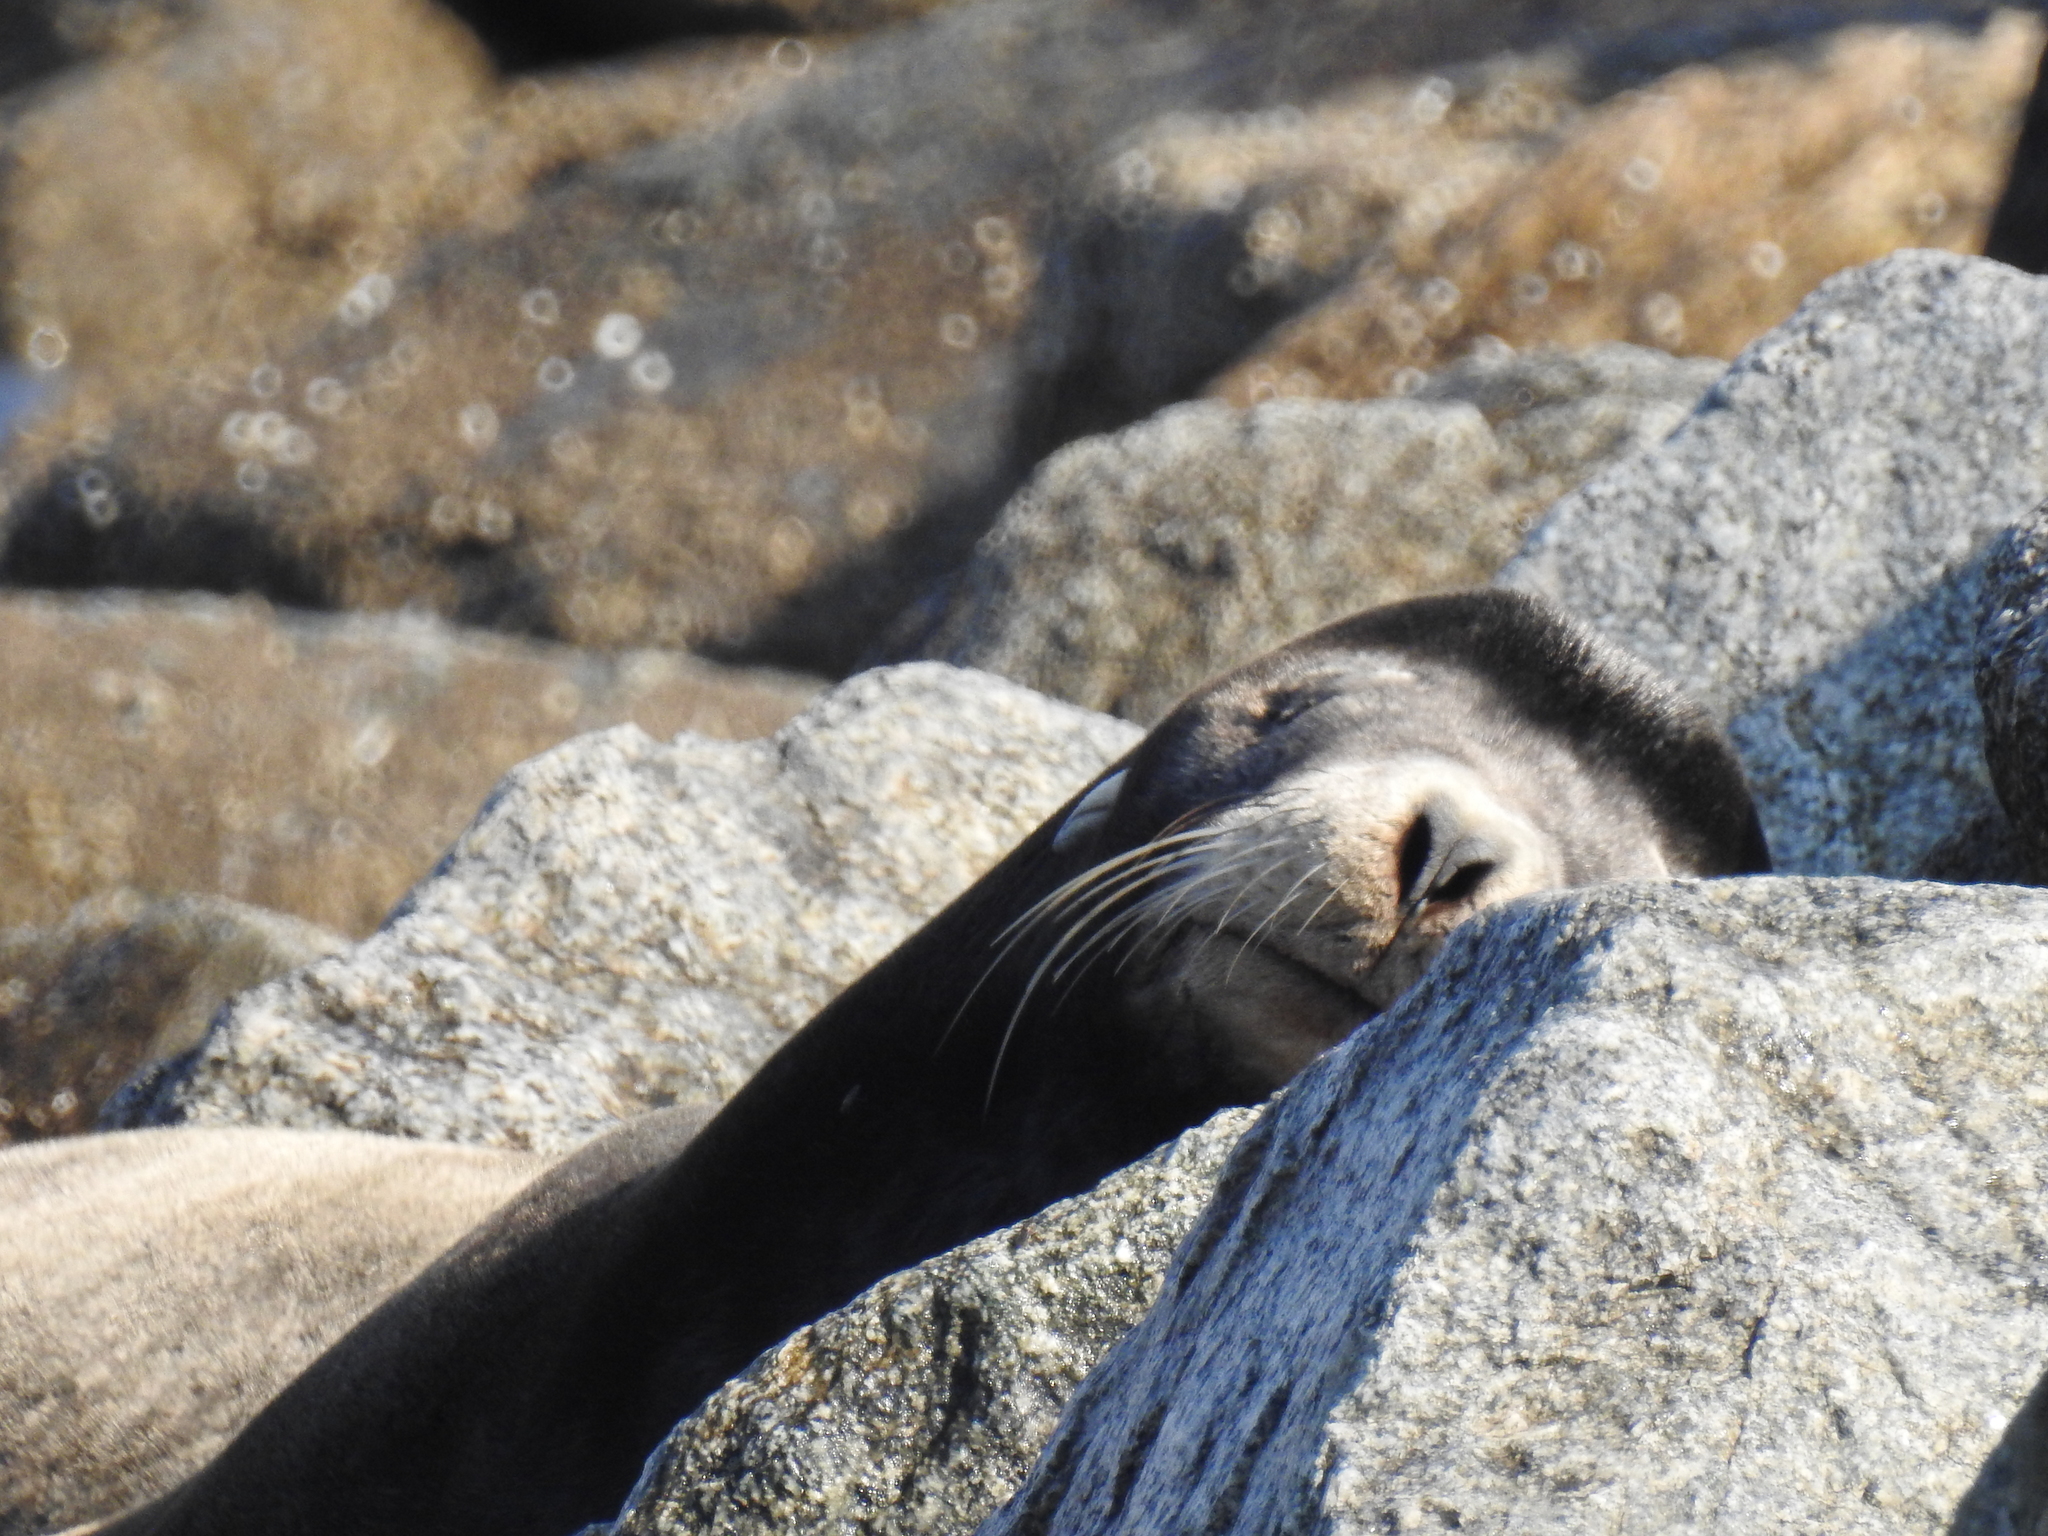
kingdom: Animalia
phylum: Chordata
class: Mammalia
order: Carnivora
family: Otariidae
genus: Zalophus
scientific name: Zalophus californianus
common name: California sea lion
